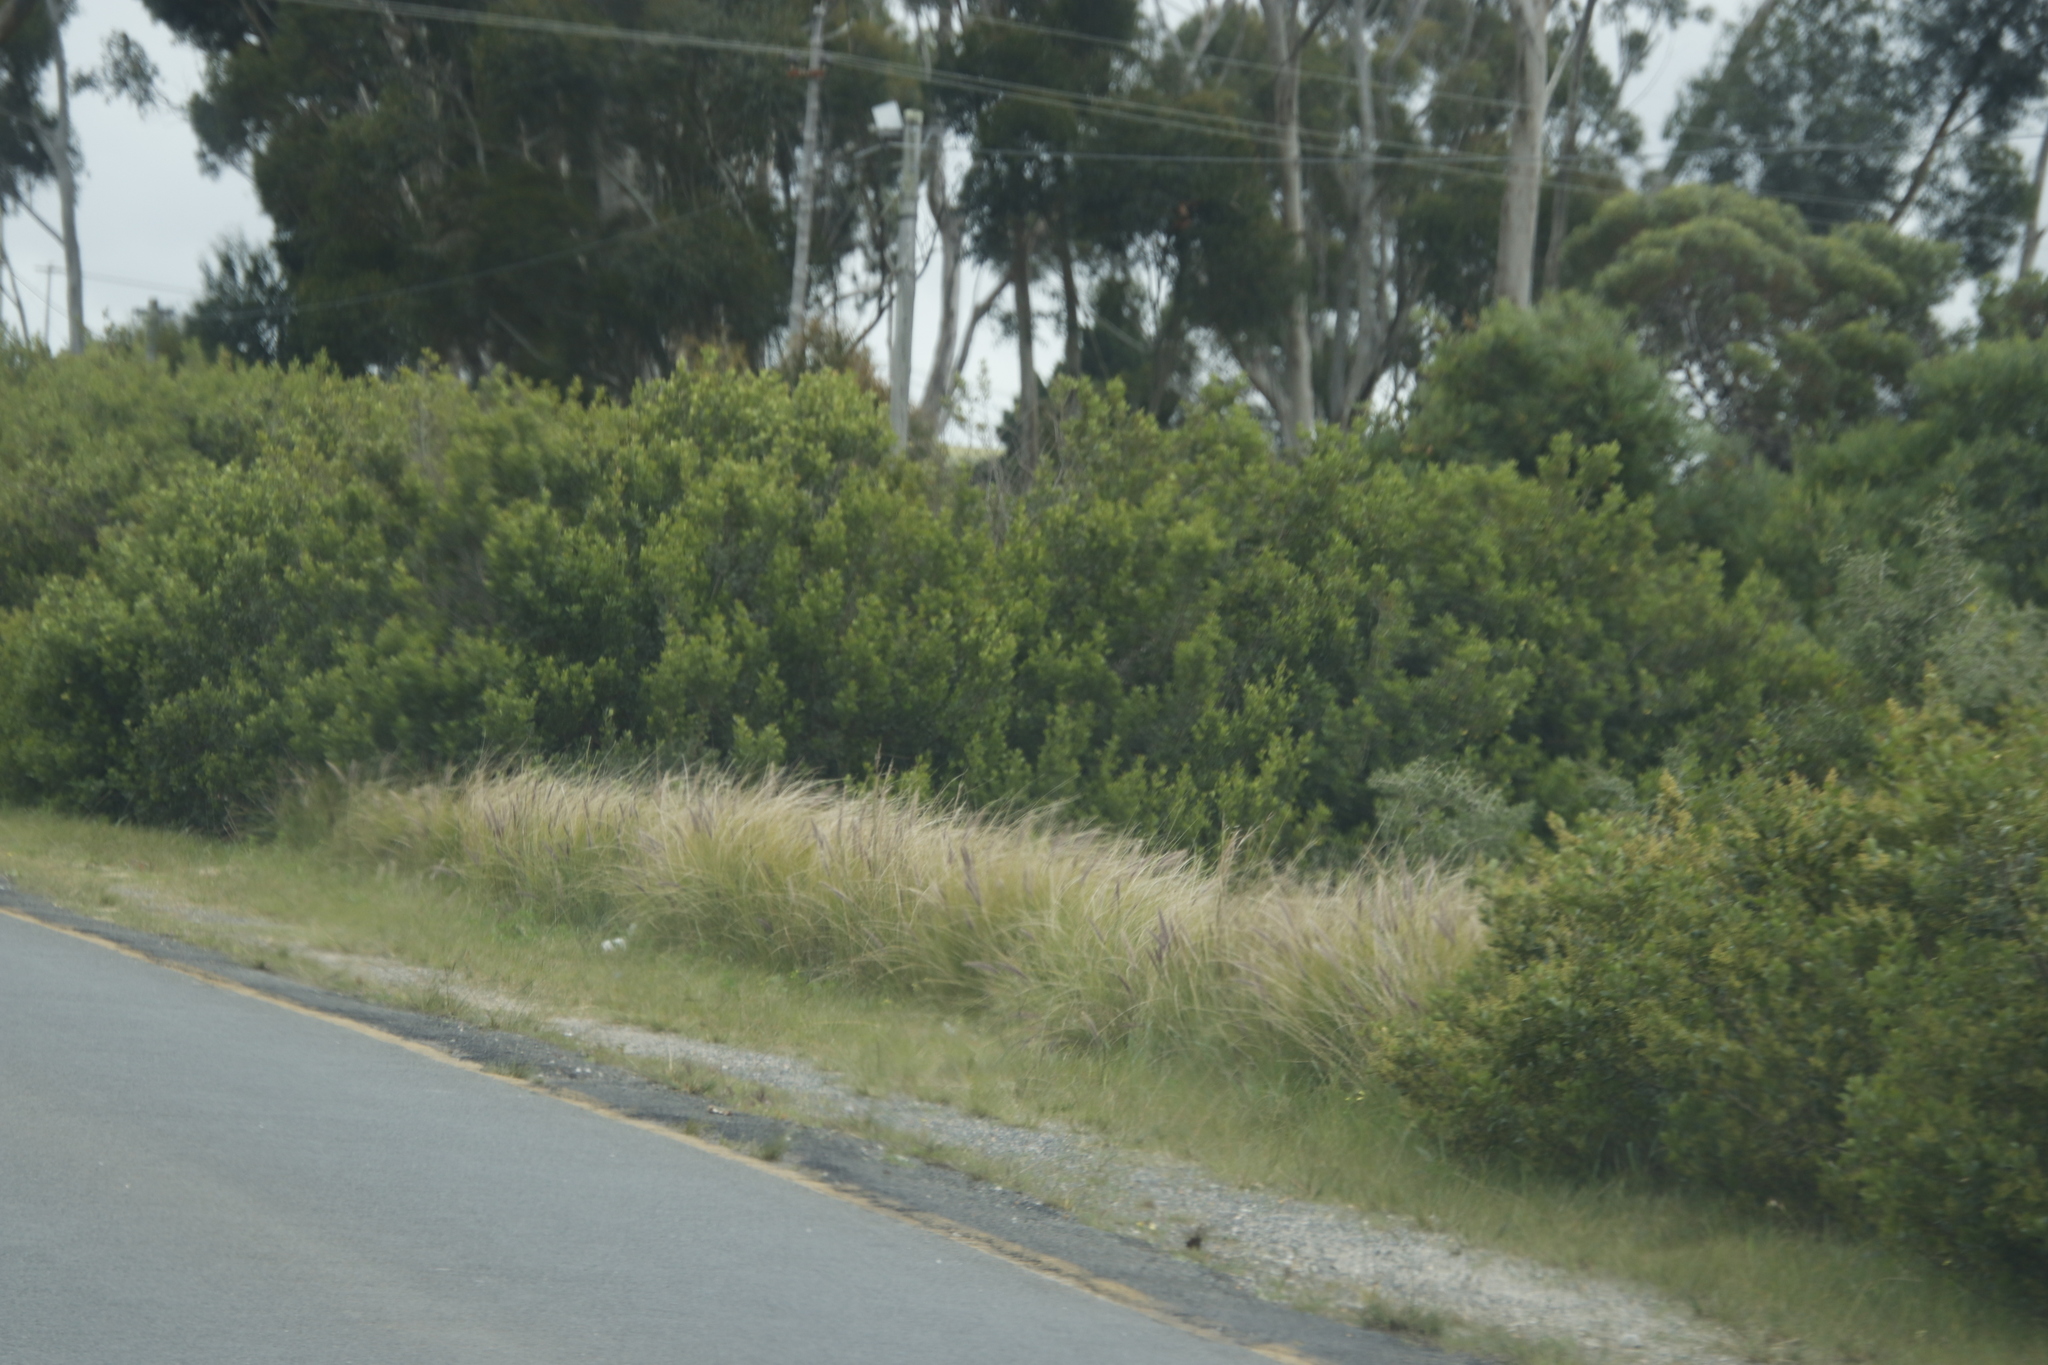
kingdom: Plantae
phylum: Tracheophyta
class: Liliopsida
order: Poales
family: Poaceae
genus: Cenchrus
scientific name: Cenchrus setaceus
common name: Crimson fountaingrass
